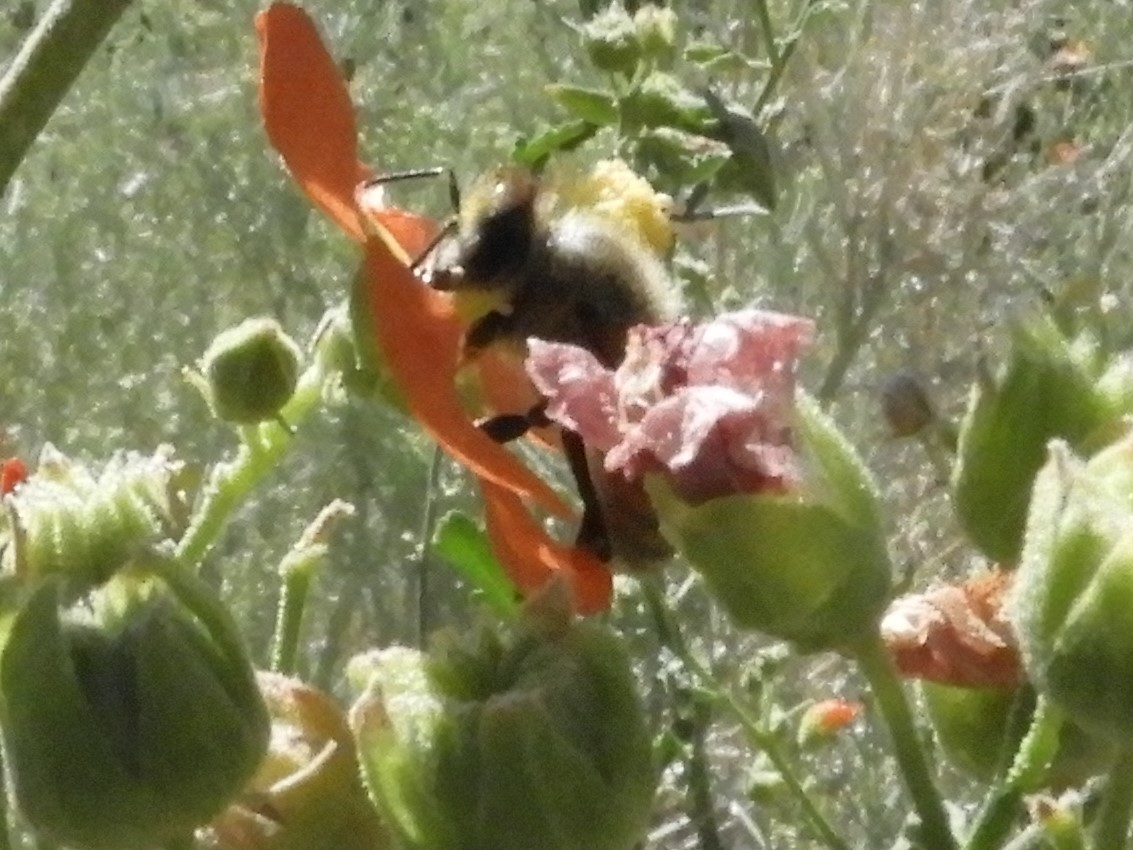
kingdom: Animalia
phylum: Arthropoda
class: Insecta
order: Hymenoptera
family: Apidae
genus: Apis
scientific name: Apis mellifera
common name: Honey bee
